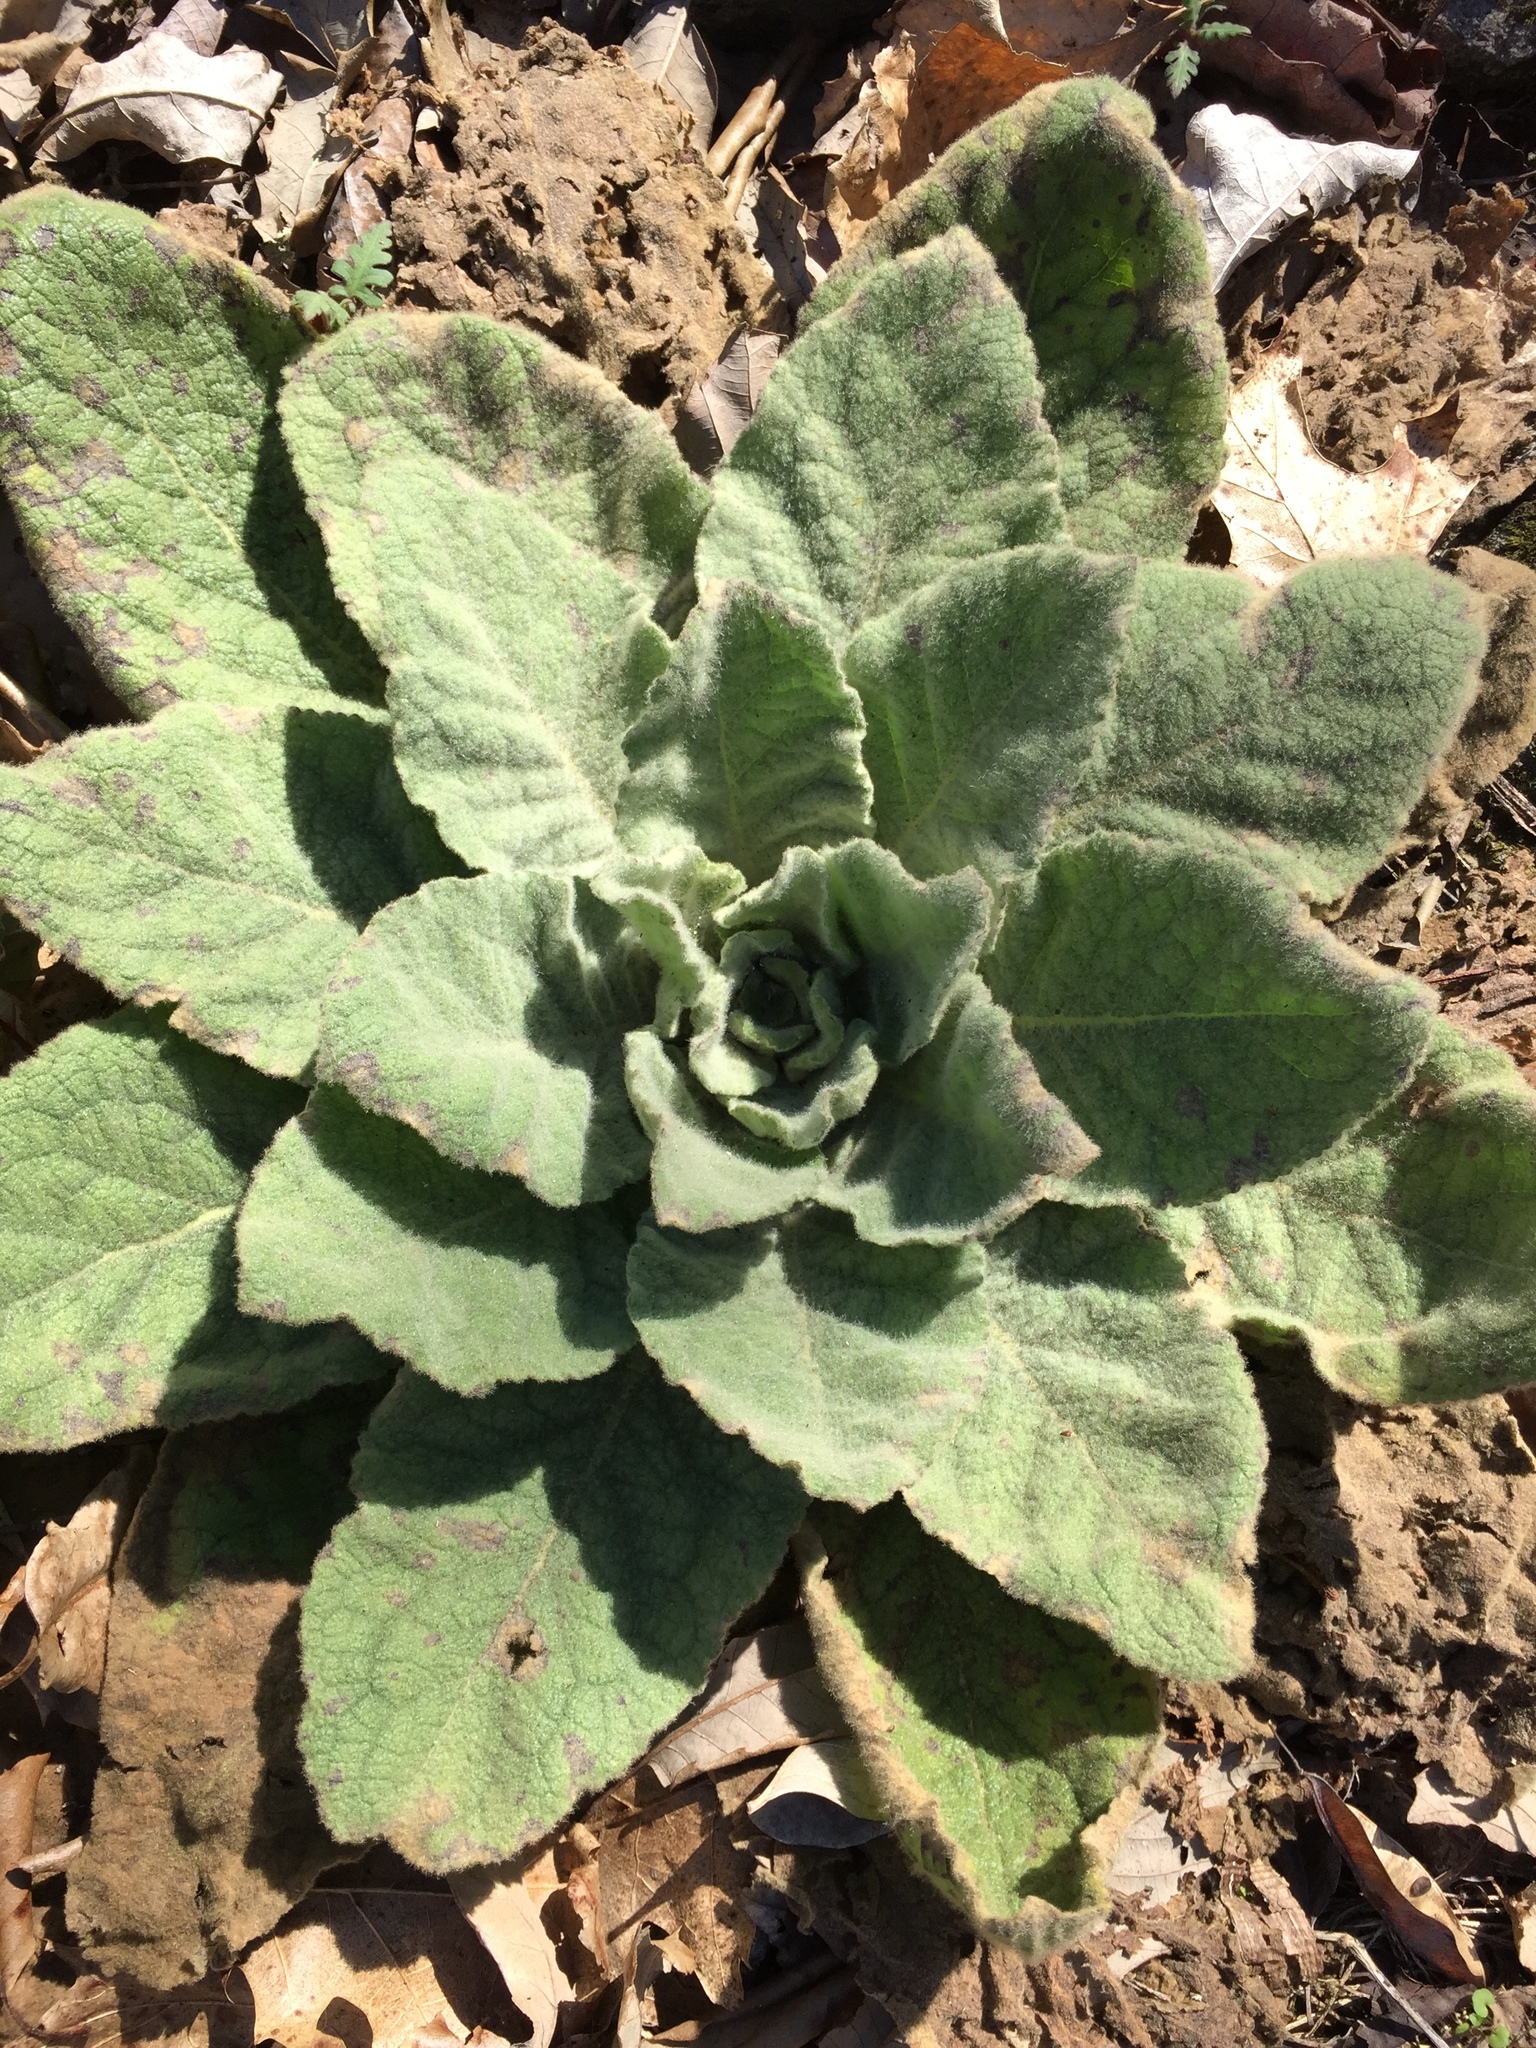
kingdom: Plantae
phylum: Tracheophyta
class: Magnoliopsida
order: Lamiales
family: Scrophulariaceae
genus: Verbascum
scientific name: Verbascum thapsus
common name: Common mullein
